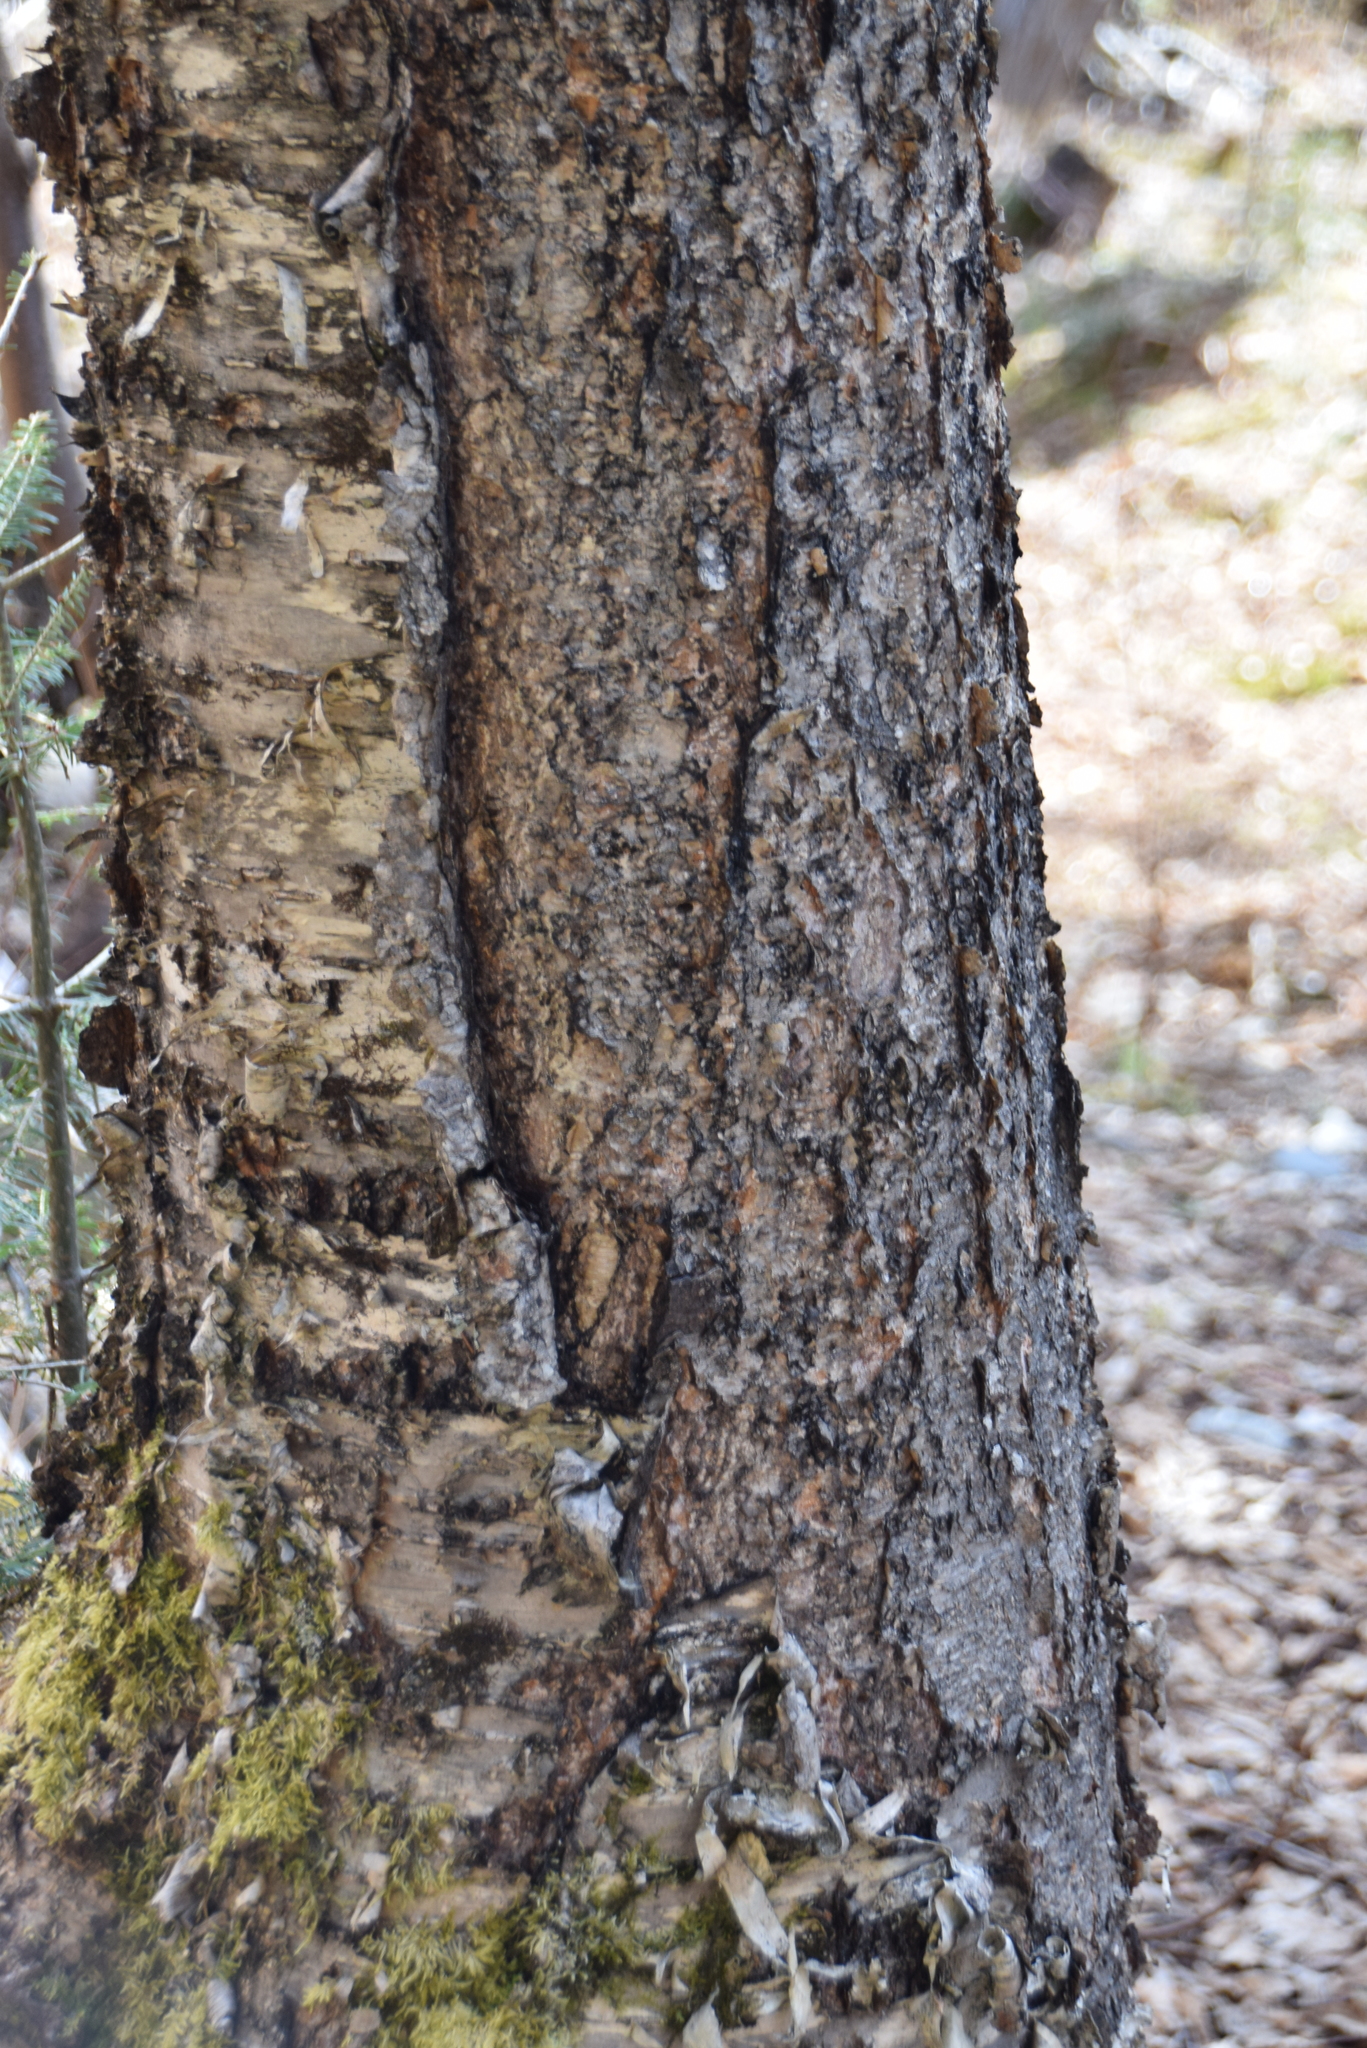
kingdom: Plantae
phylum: Tracheophyta
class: Magnoliopsida
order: Fagales
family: Betulaceae
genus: Betula
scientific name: Betula alleghaniensis
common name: Yellow birch
